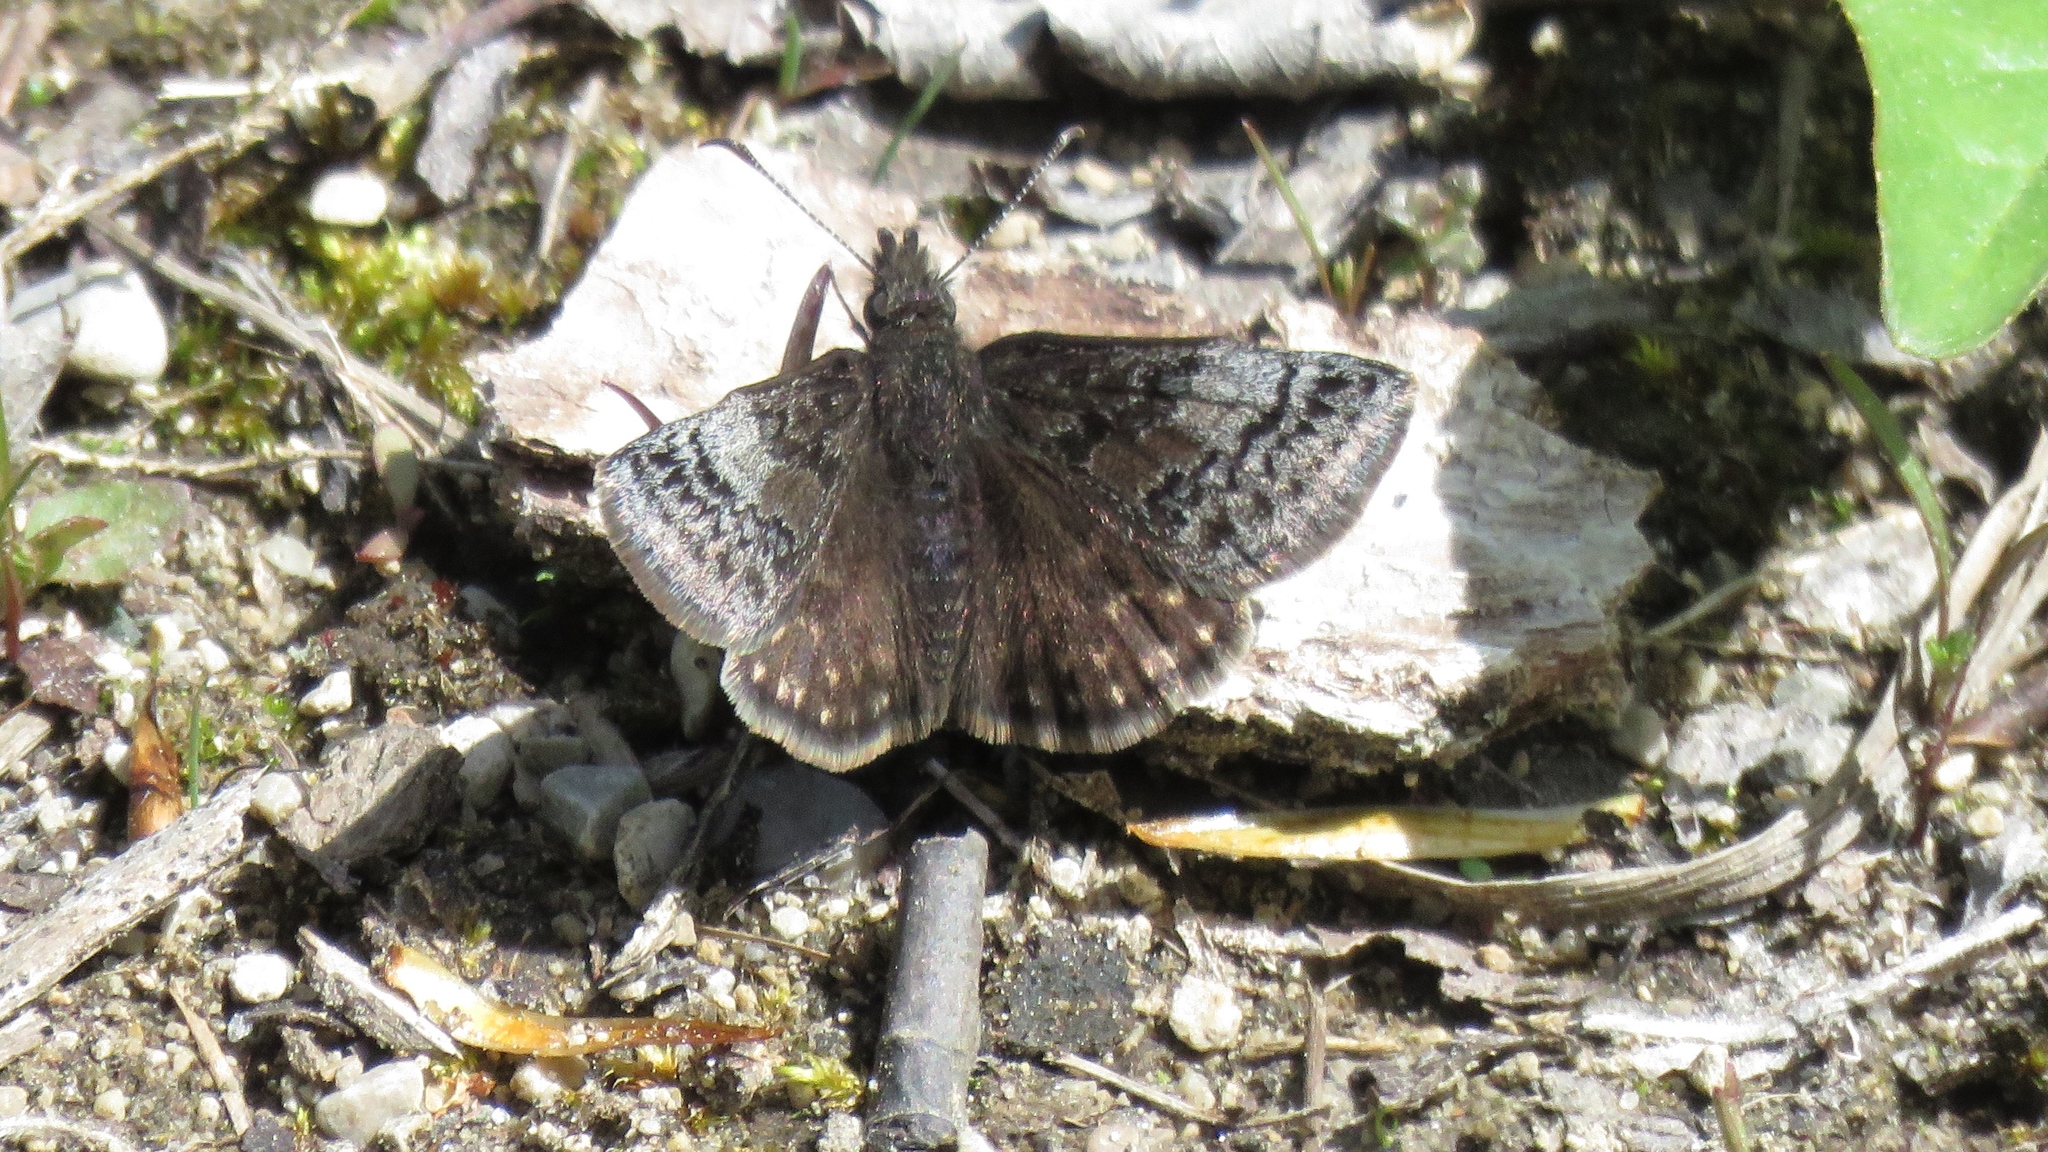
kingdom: Animalia
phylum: Arthropoda
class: Insecta
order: Lepidoptera
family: Hesperiidae
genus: Erynnis
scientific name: Erynnis icelus
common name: Dreamy duskywing
